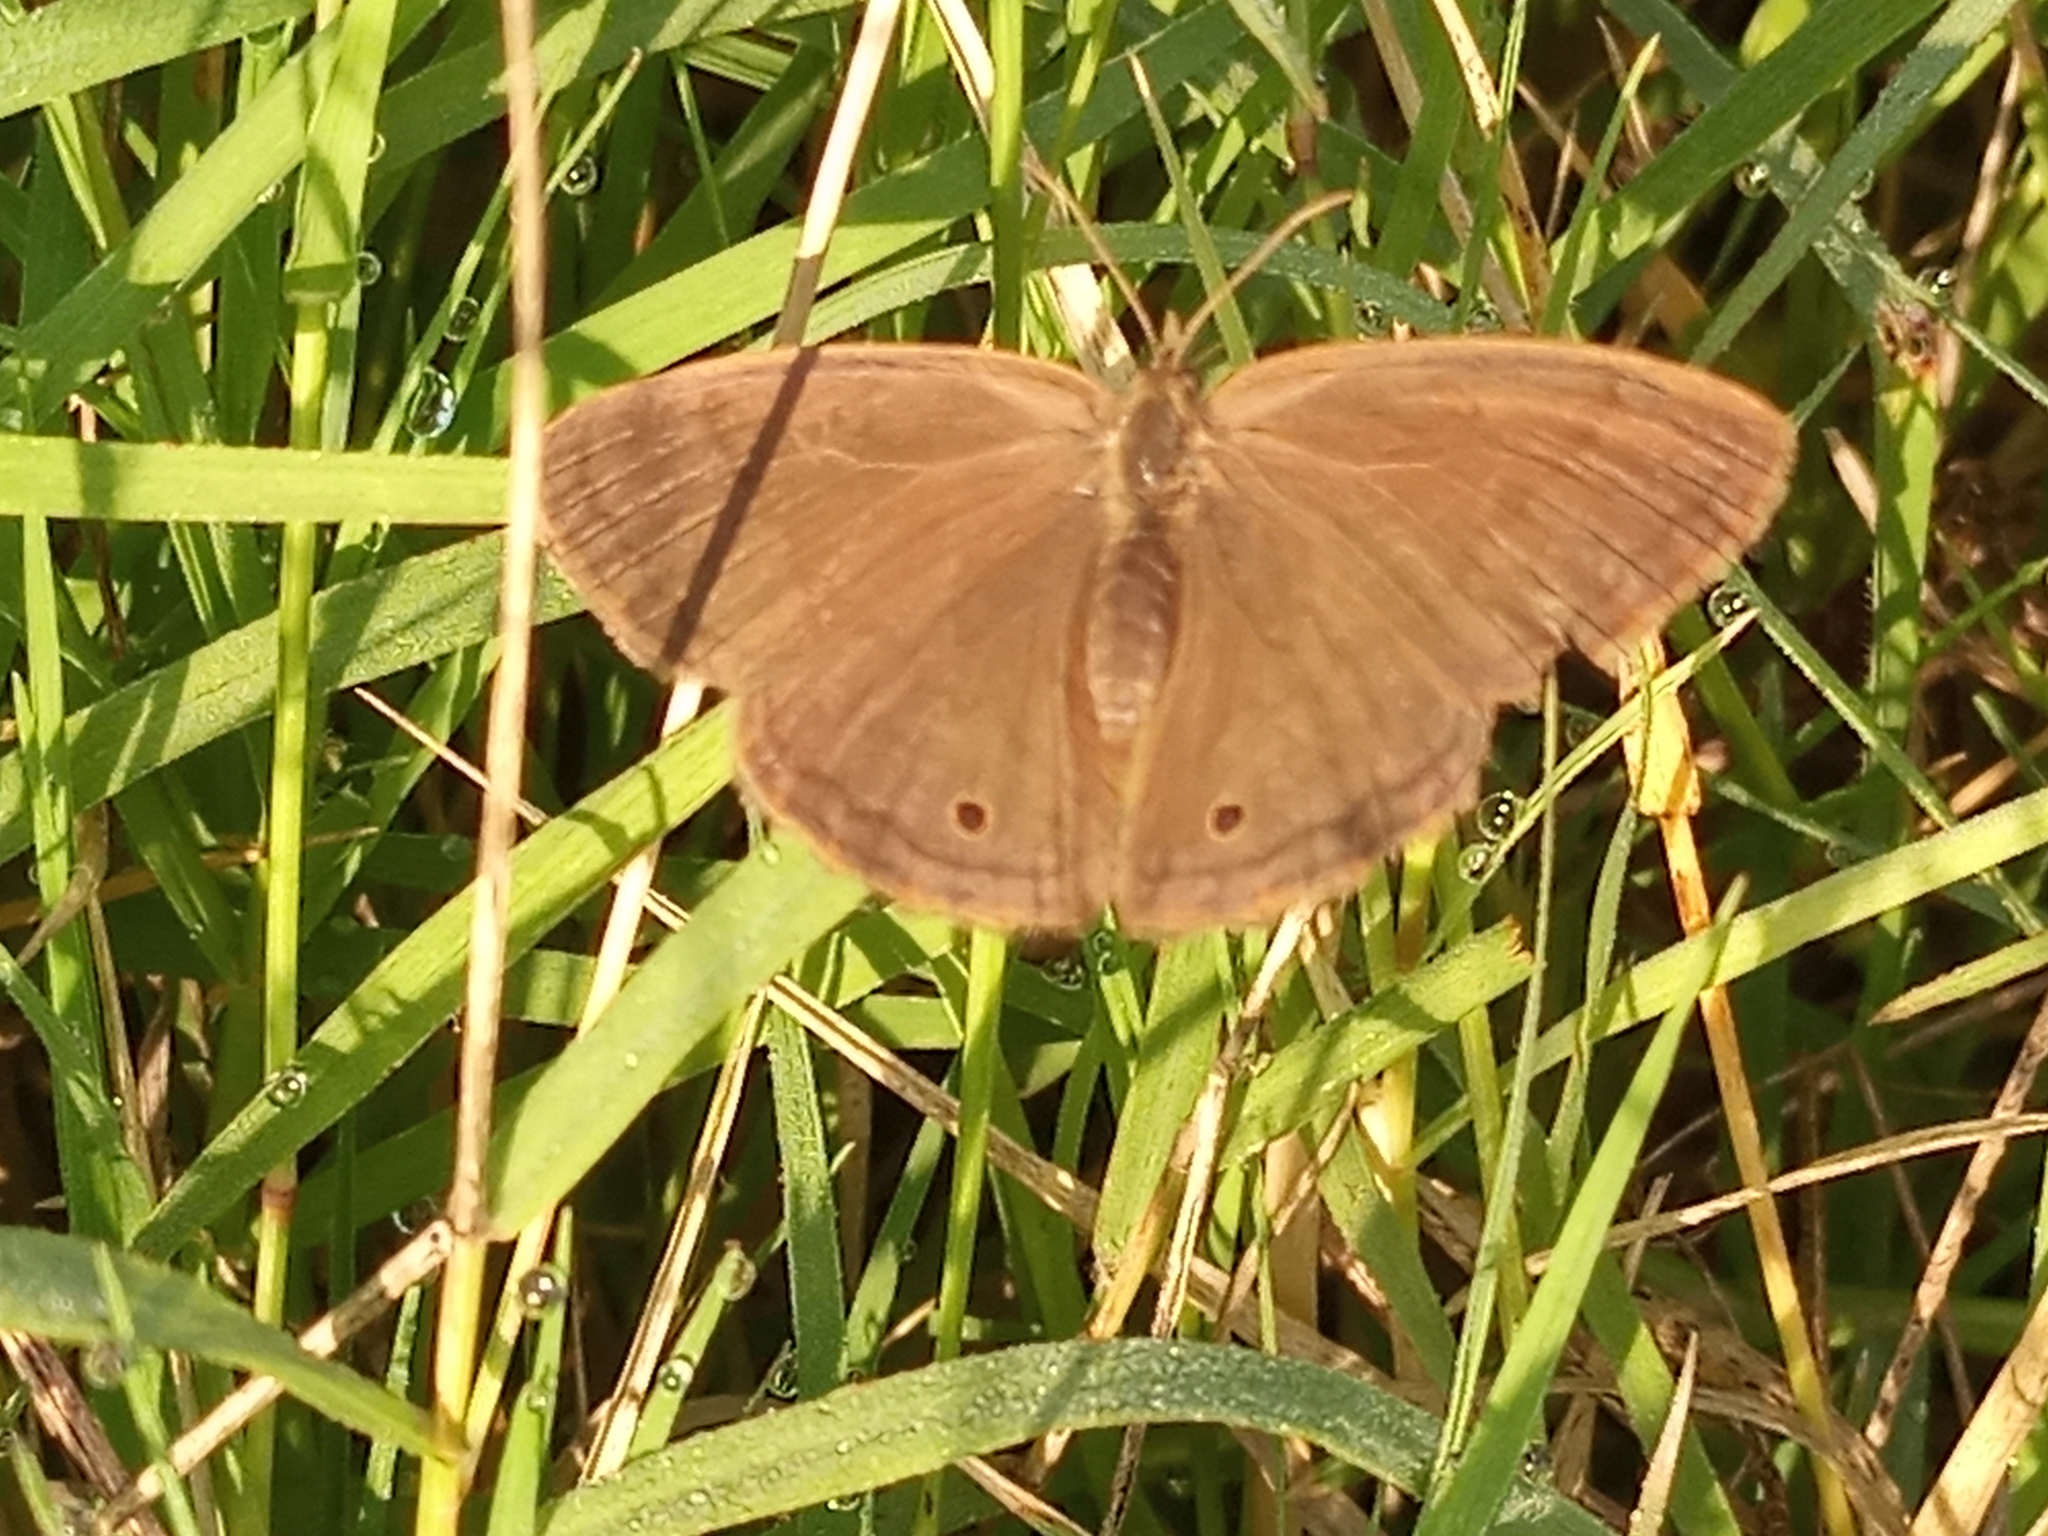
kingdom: Animalia
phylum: Arthropoda
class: Insecta
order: Lepidoptera
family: Nymphalidae
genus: Yphthimoides
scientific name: Yphthimoides celmis
